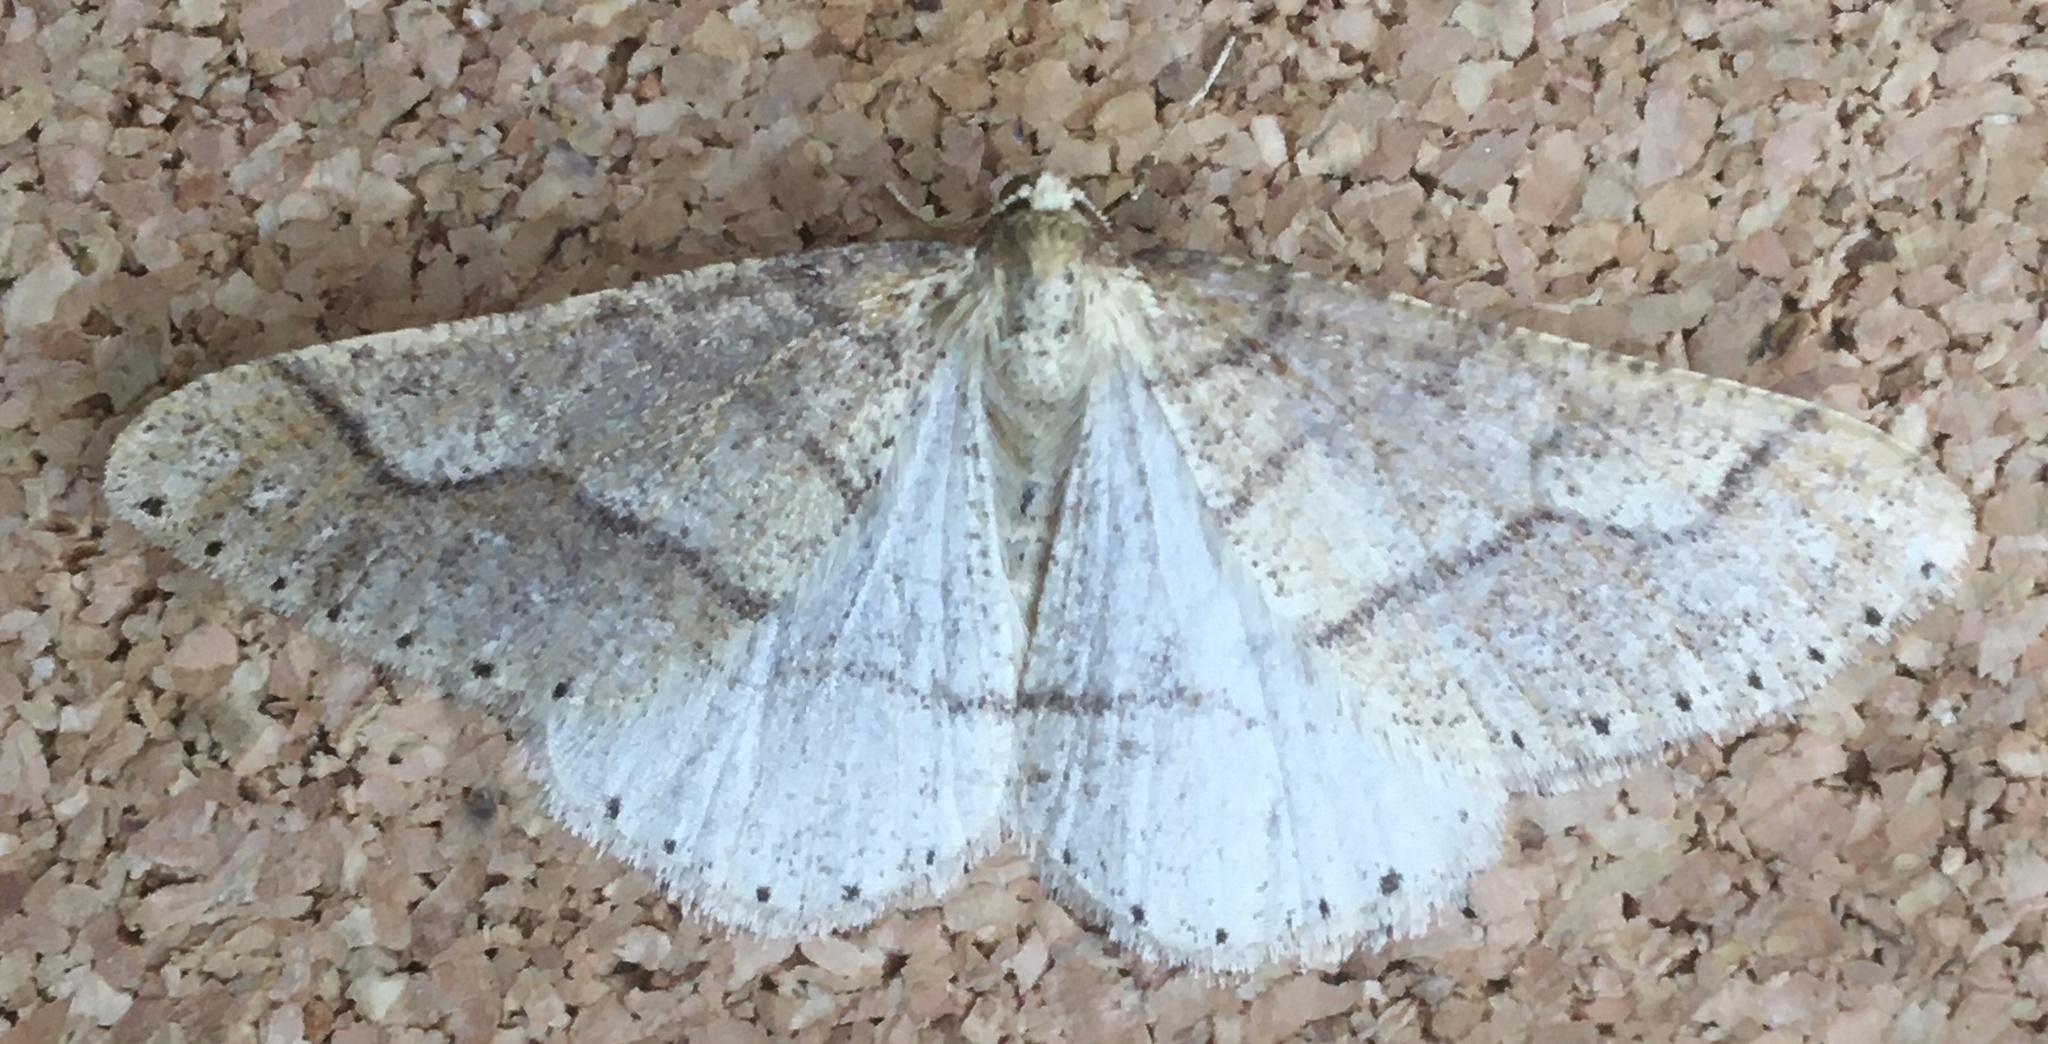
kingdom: Animalia
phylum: Arthropoda
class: Insecta
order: Lepidoptera
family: Geometridae
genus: Agriopis
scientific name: Agriopis marginaria
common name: Dotted border
